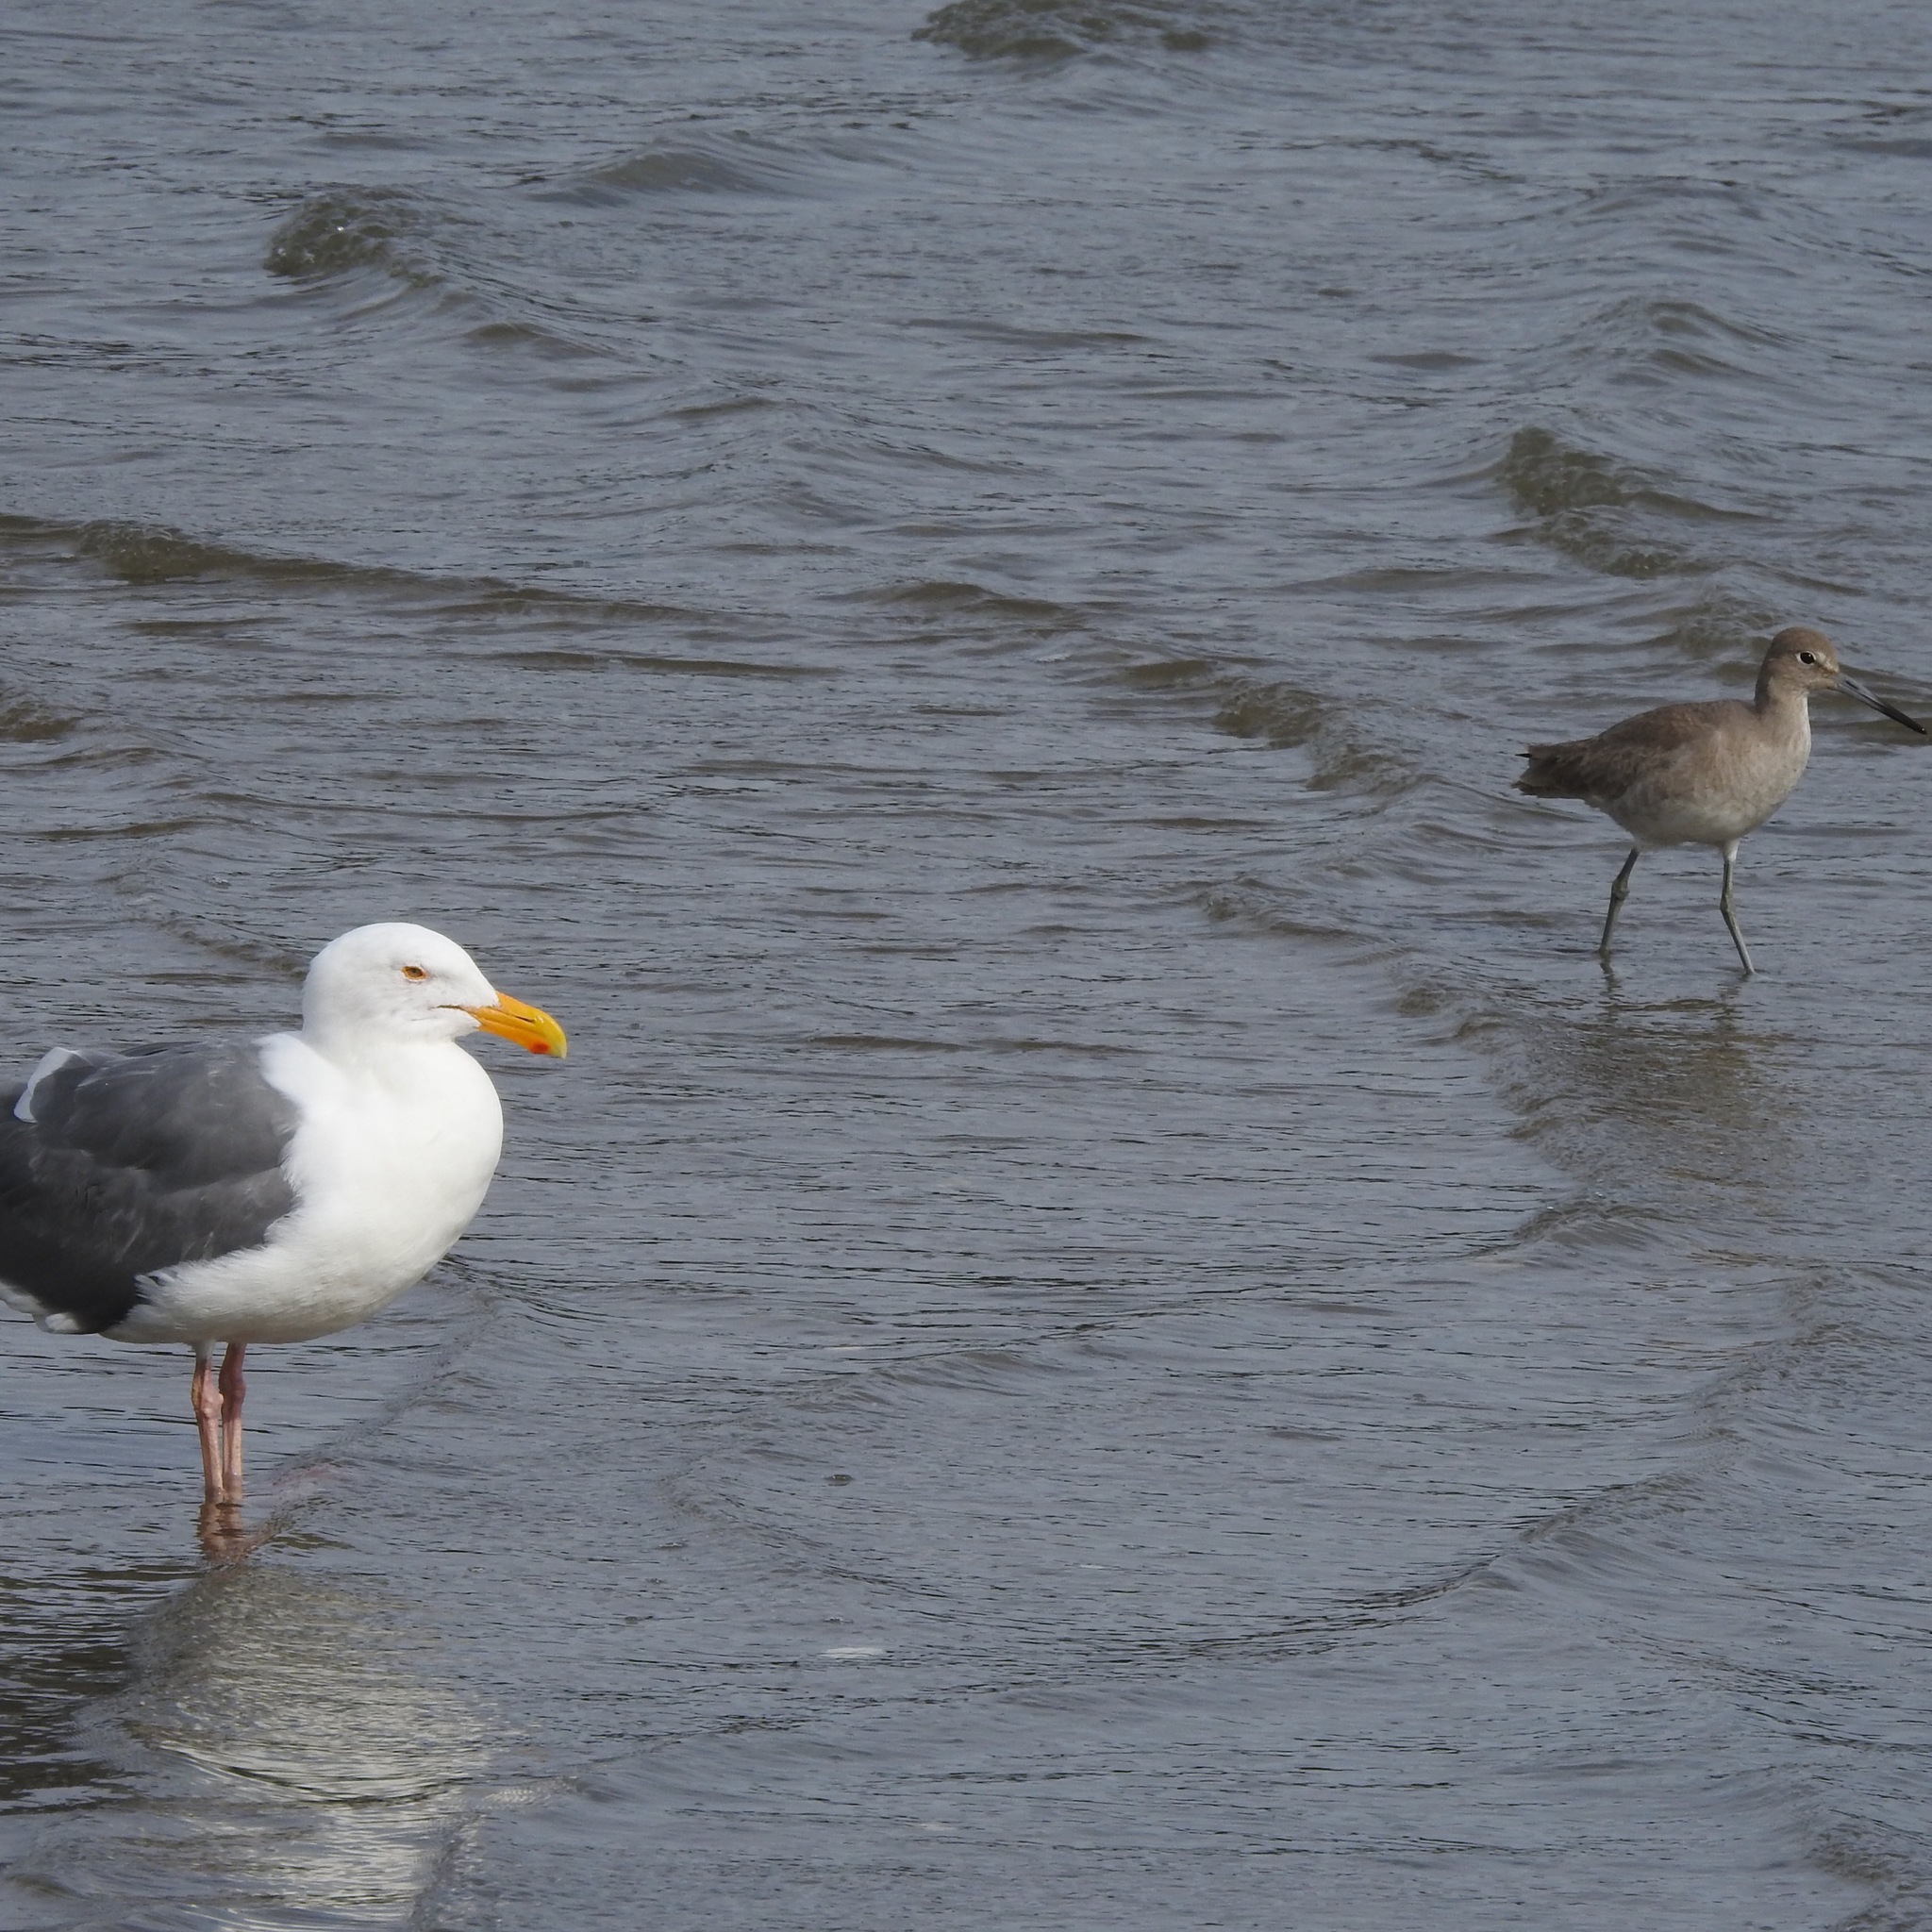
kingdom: Animalia
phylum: Chordata
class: Aves
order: Charadriiformes
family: Laridae
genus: Larus
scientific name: Larus occidentalis
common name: Western gull
